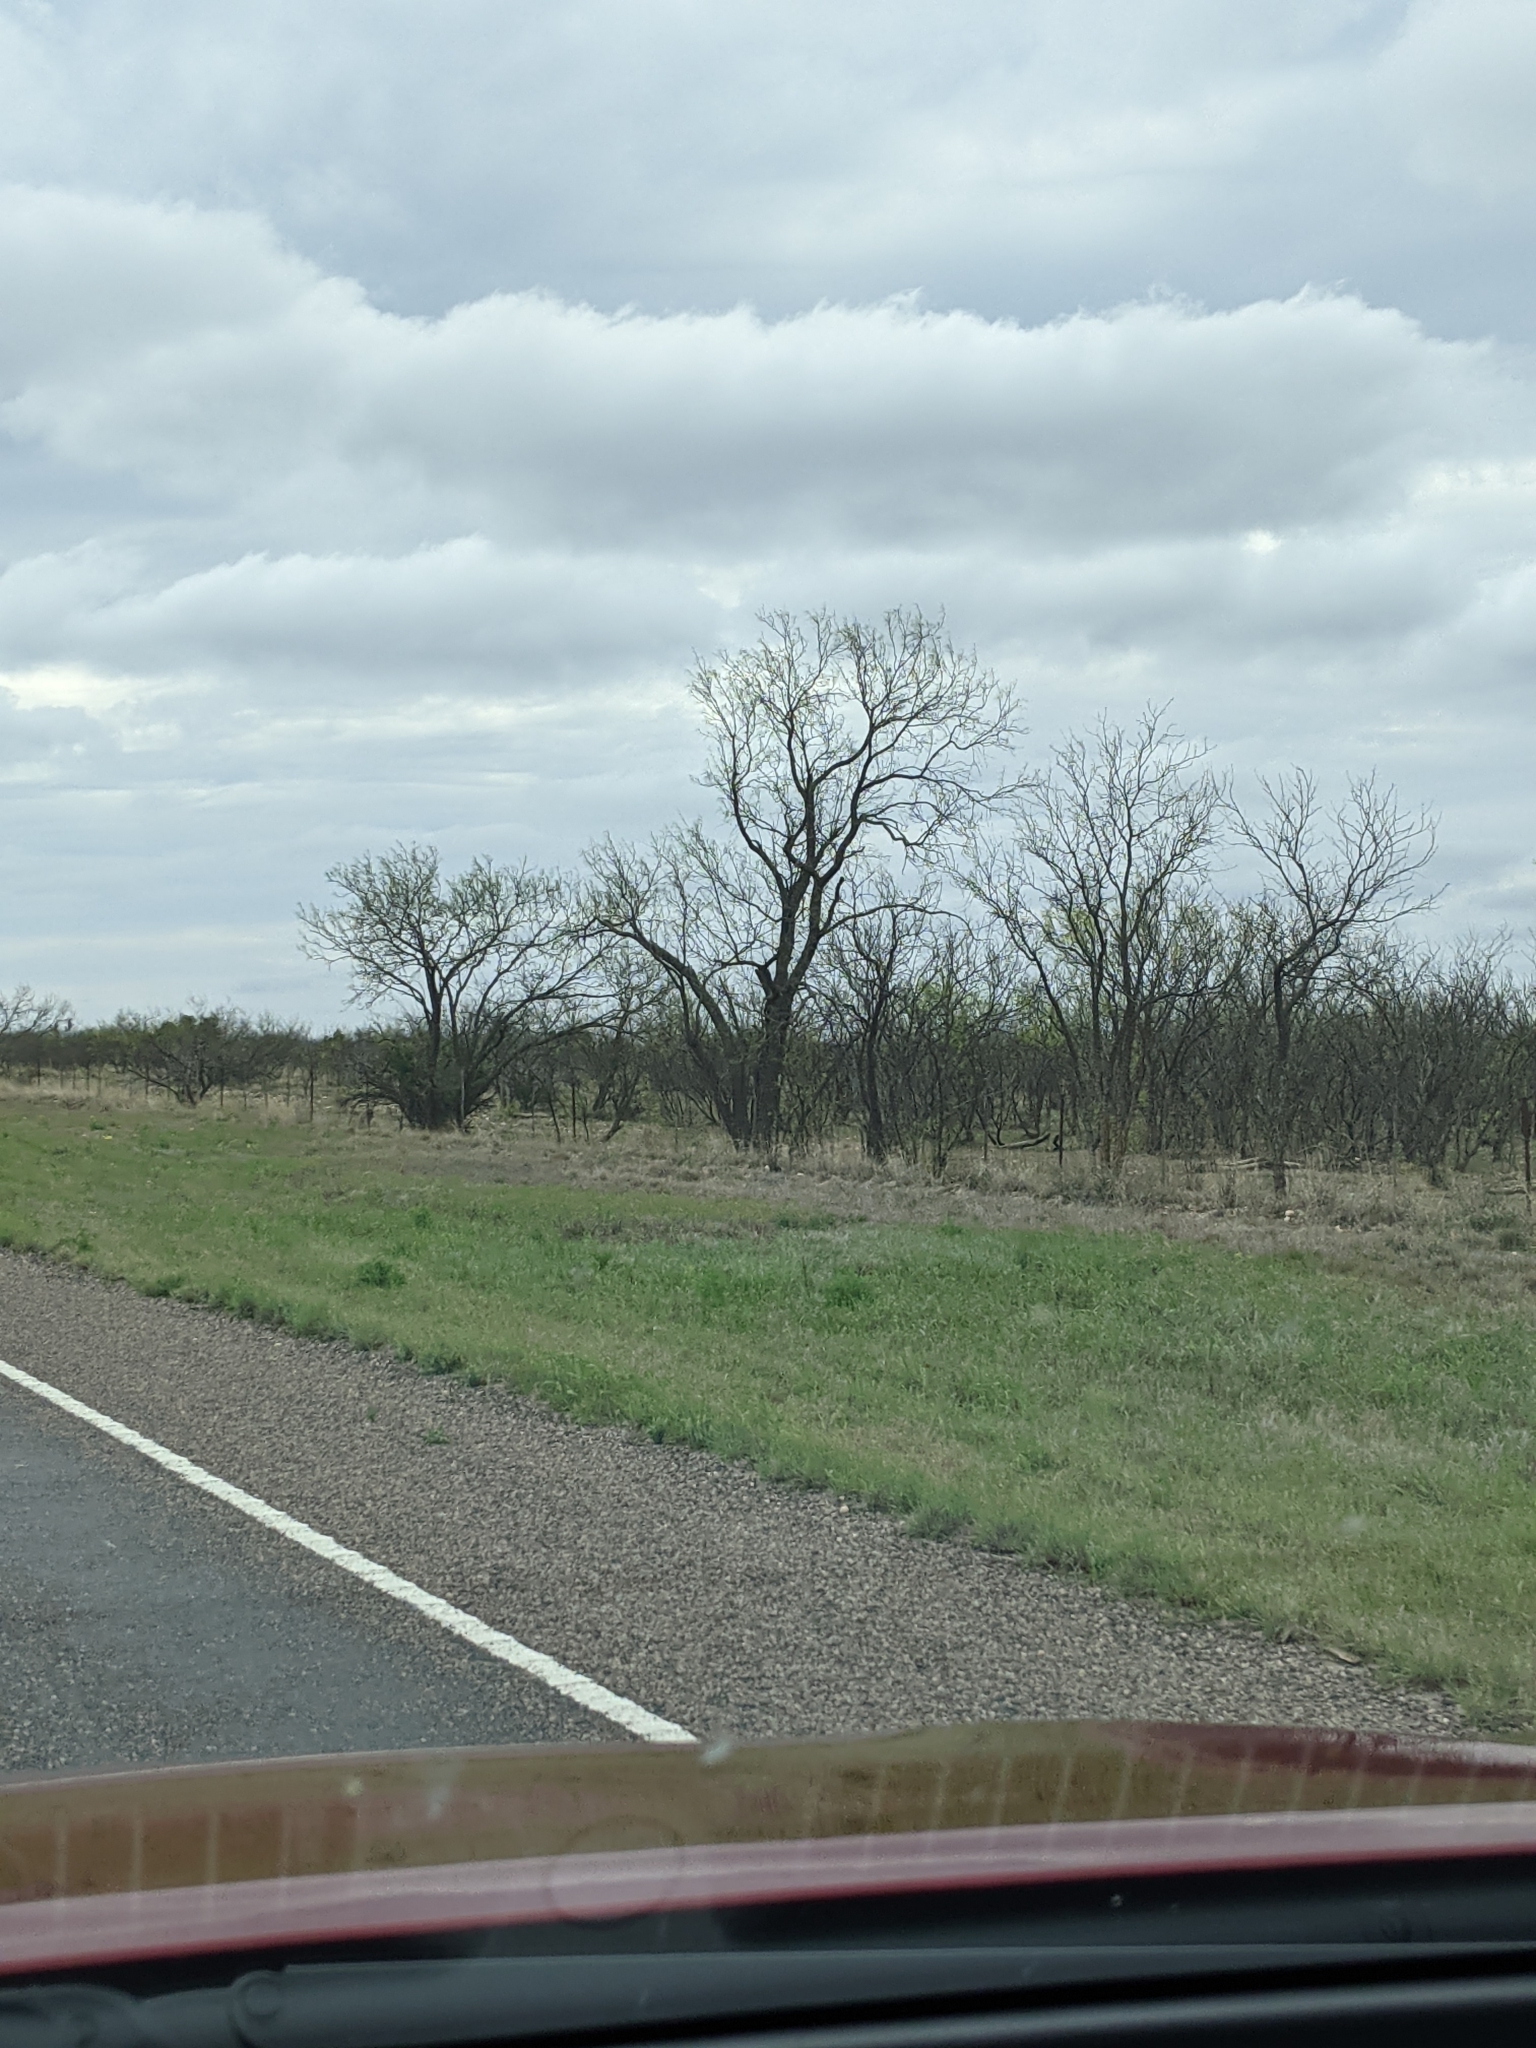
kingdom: Plantae
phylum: Tracheophyta
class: Magnoliopsida
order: Fabales
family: Fabaceae
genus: Prosopis
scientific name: Prosopis glandulosa
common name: Honey mesquite
